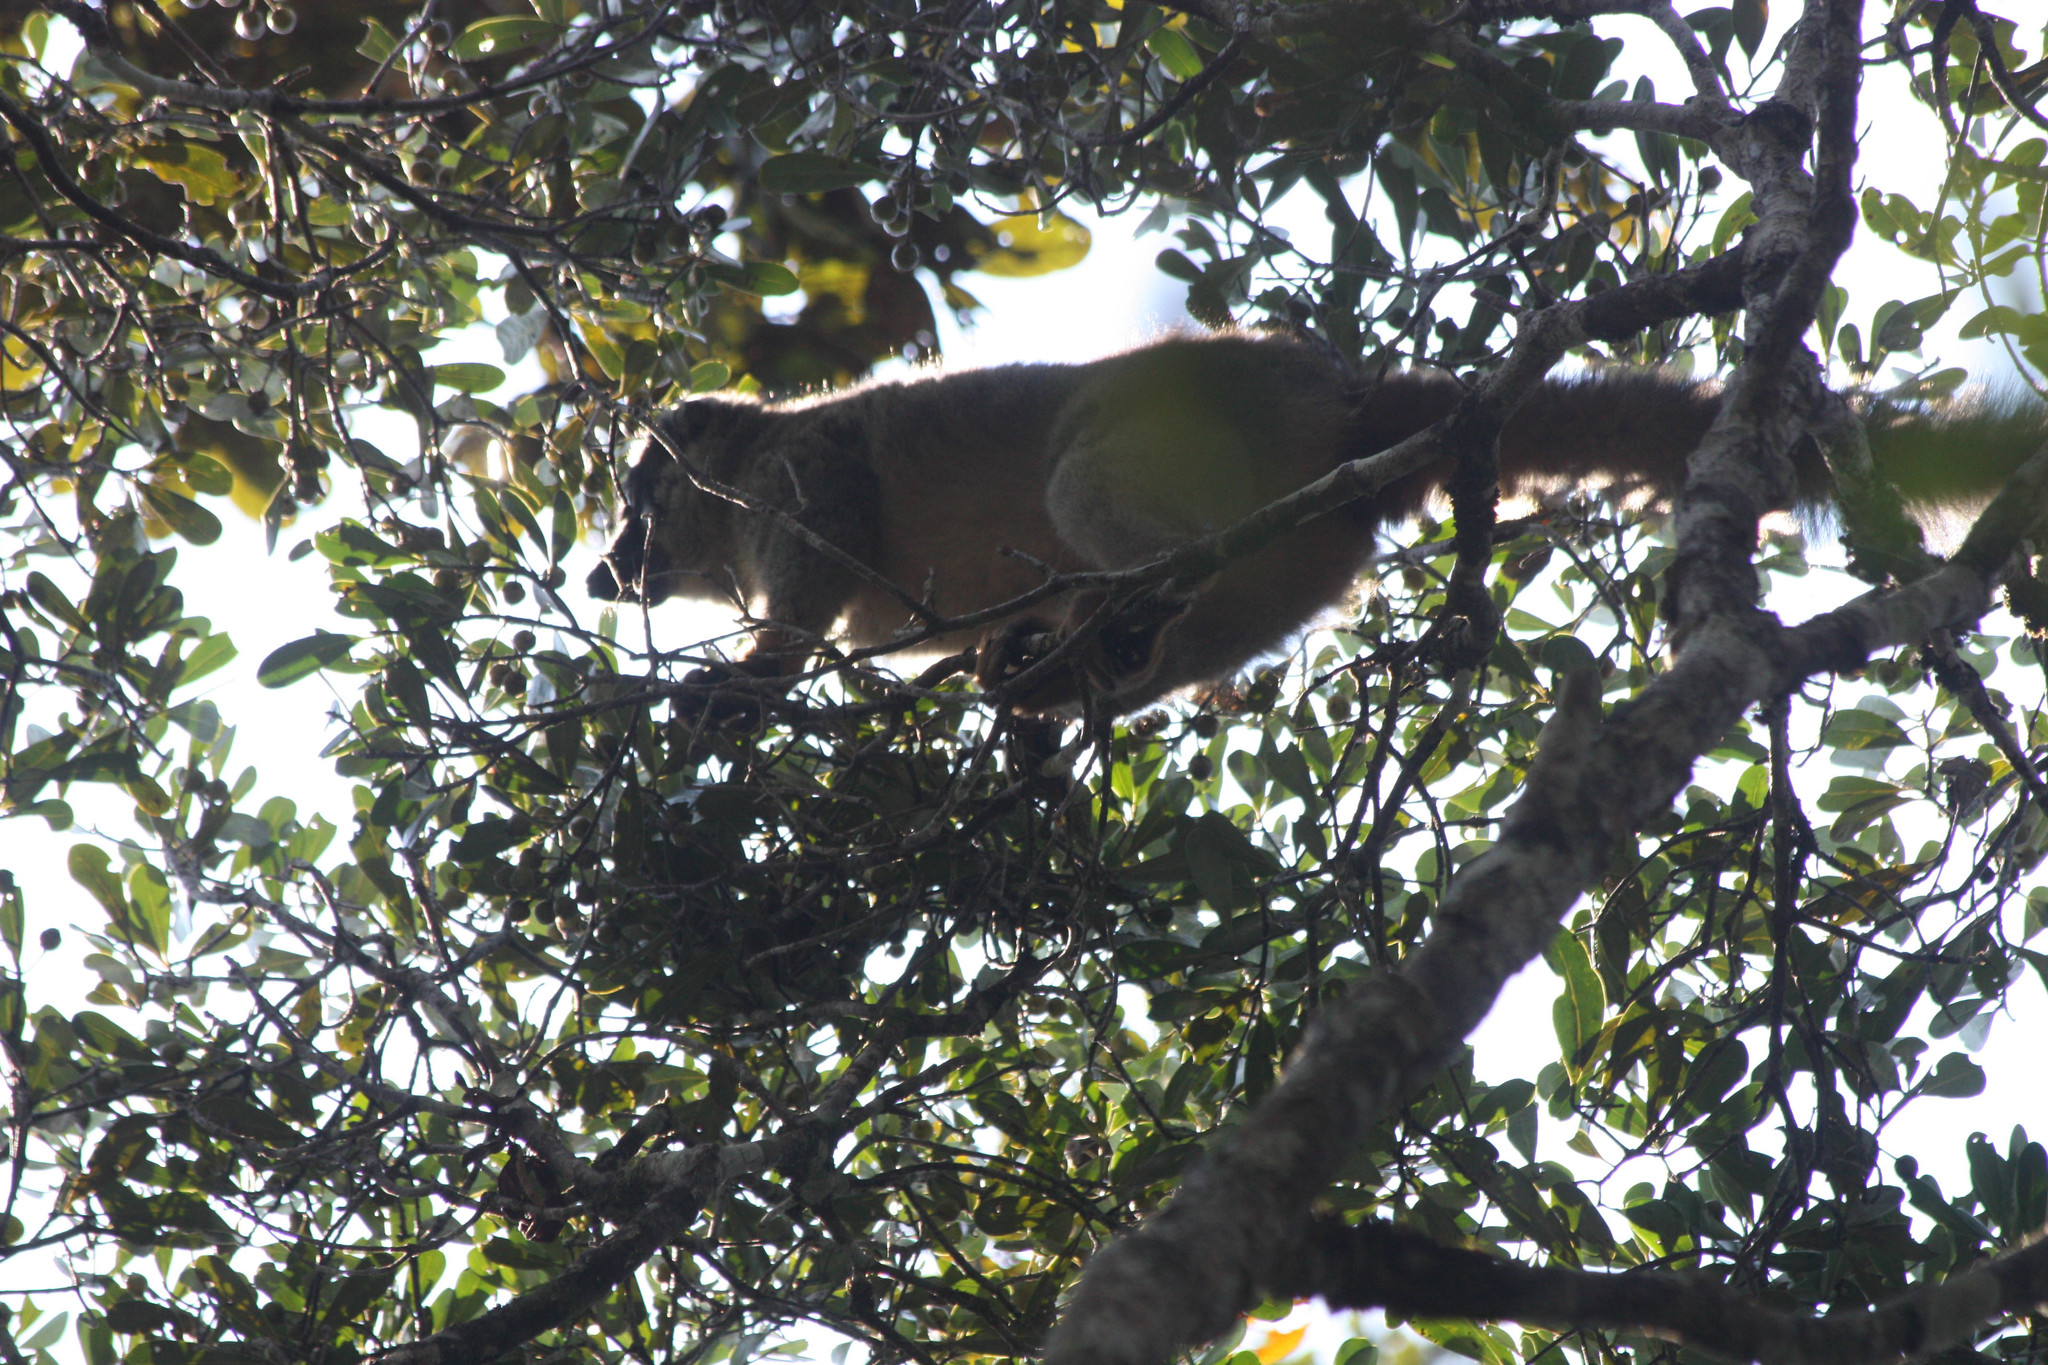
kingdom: Animalia
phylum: Chordata
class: Mammalia
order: Primates
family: Lemuridae
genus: Eulemur
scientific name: Eulemur fulvus
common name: Brown lemur
